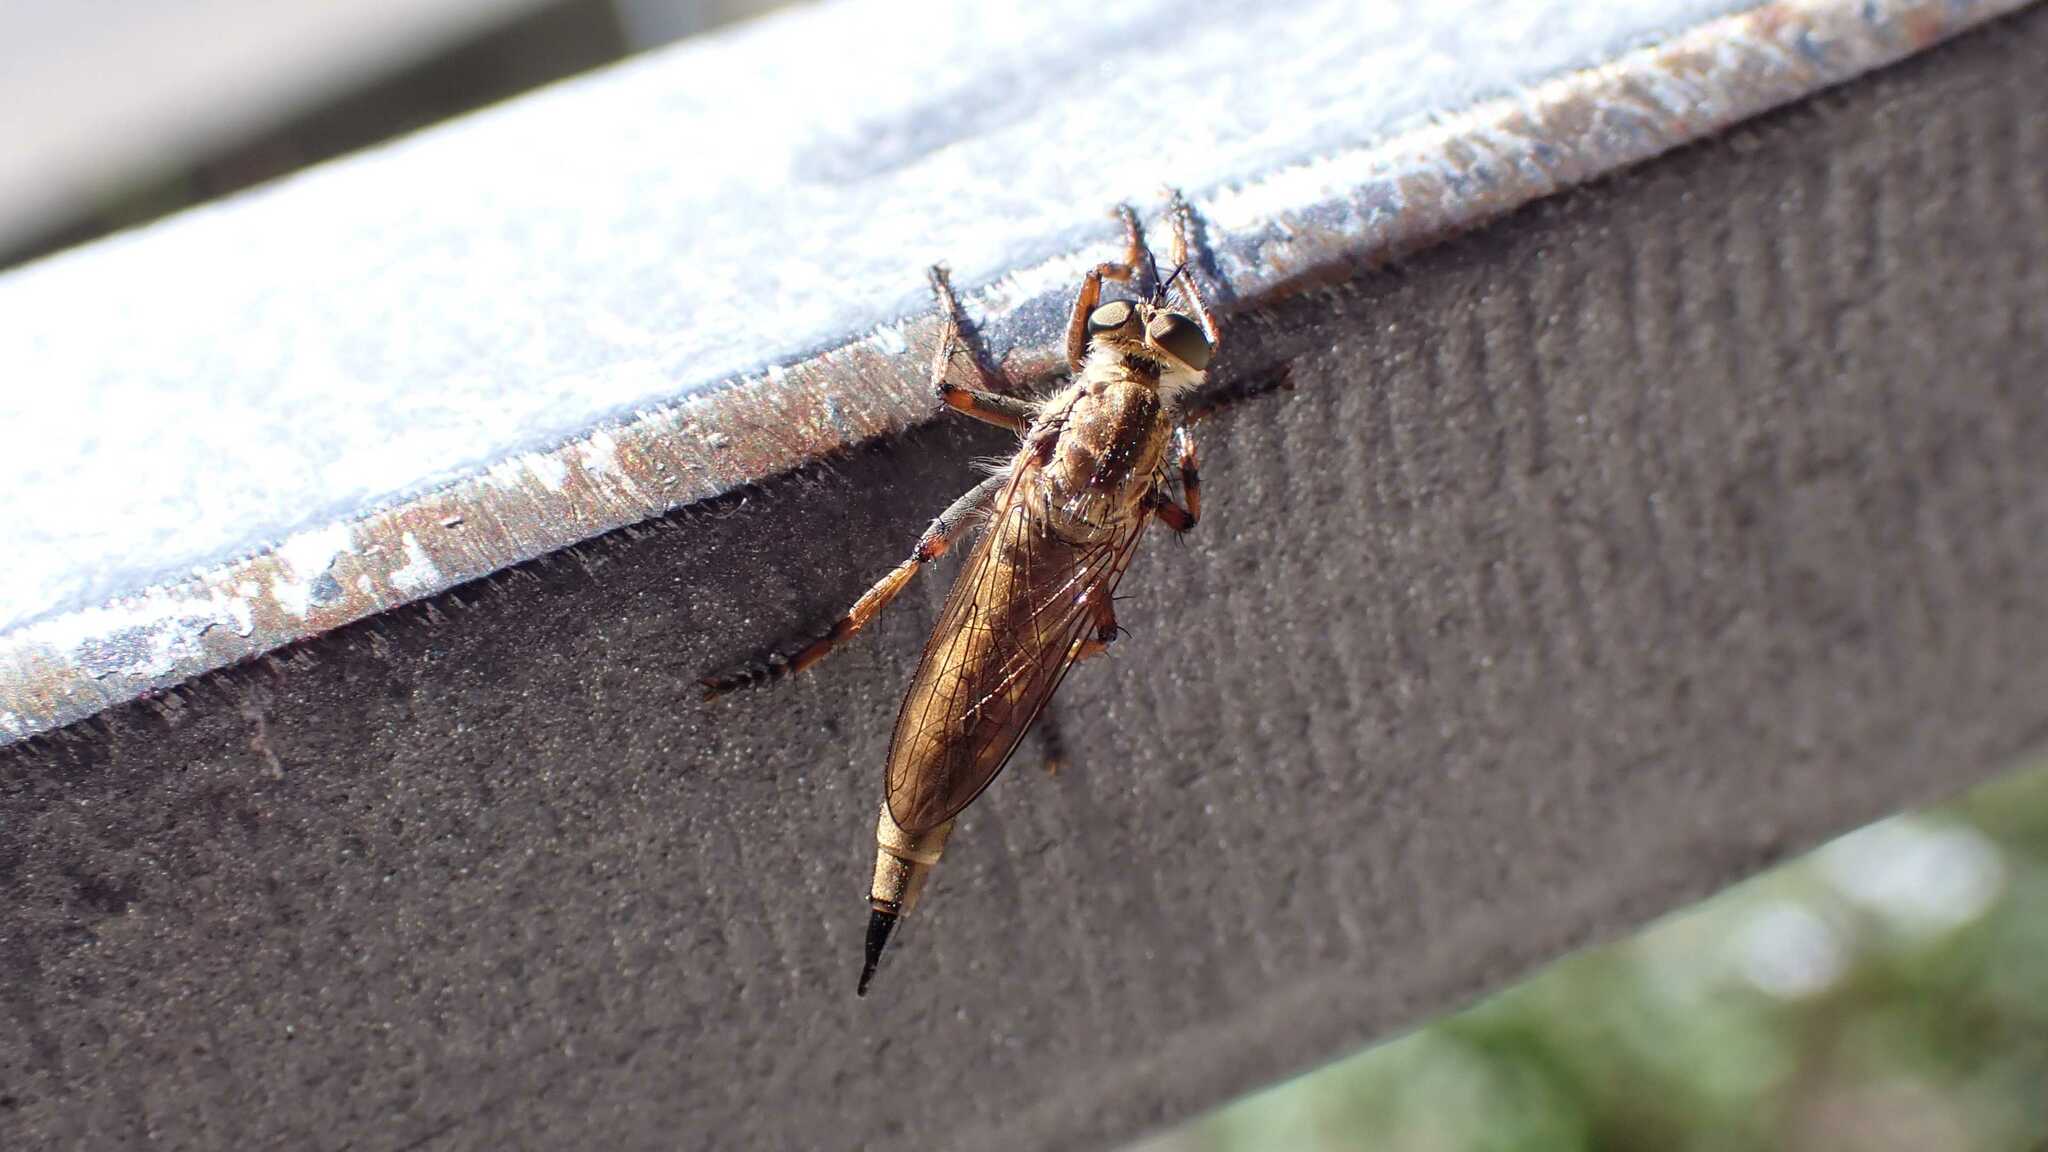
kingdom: Animalia
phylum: Arthropoda
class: Insecta
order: Diptera
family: Asilidae
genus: Epitriptus
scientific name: Epitriptus cingulatus
